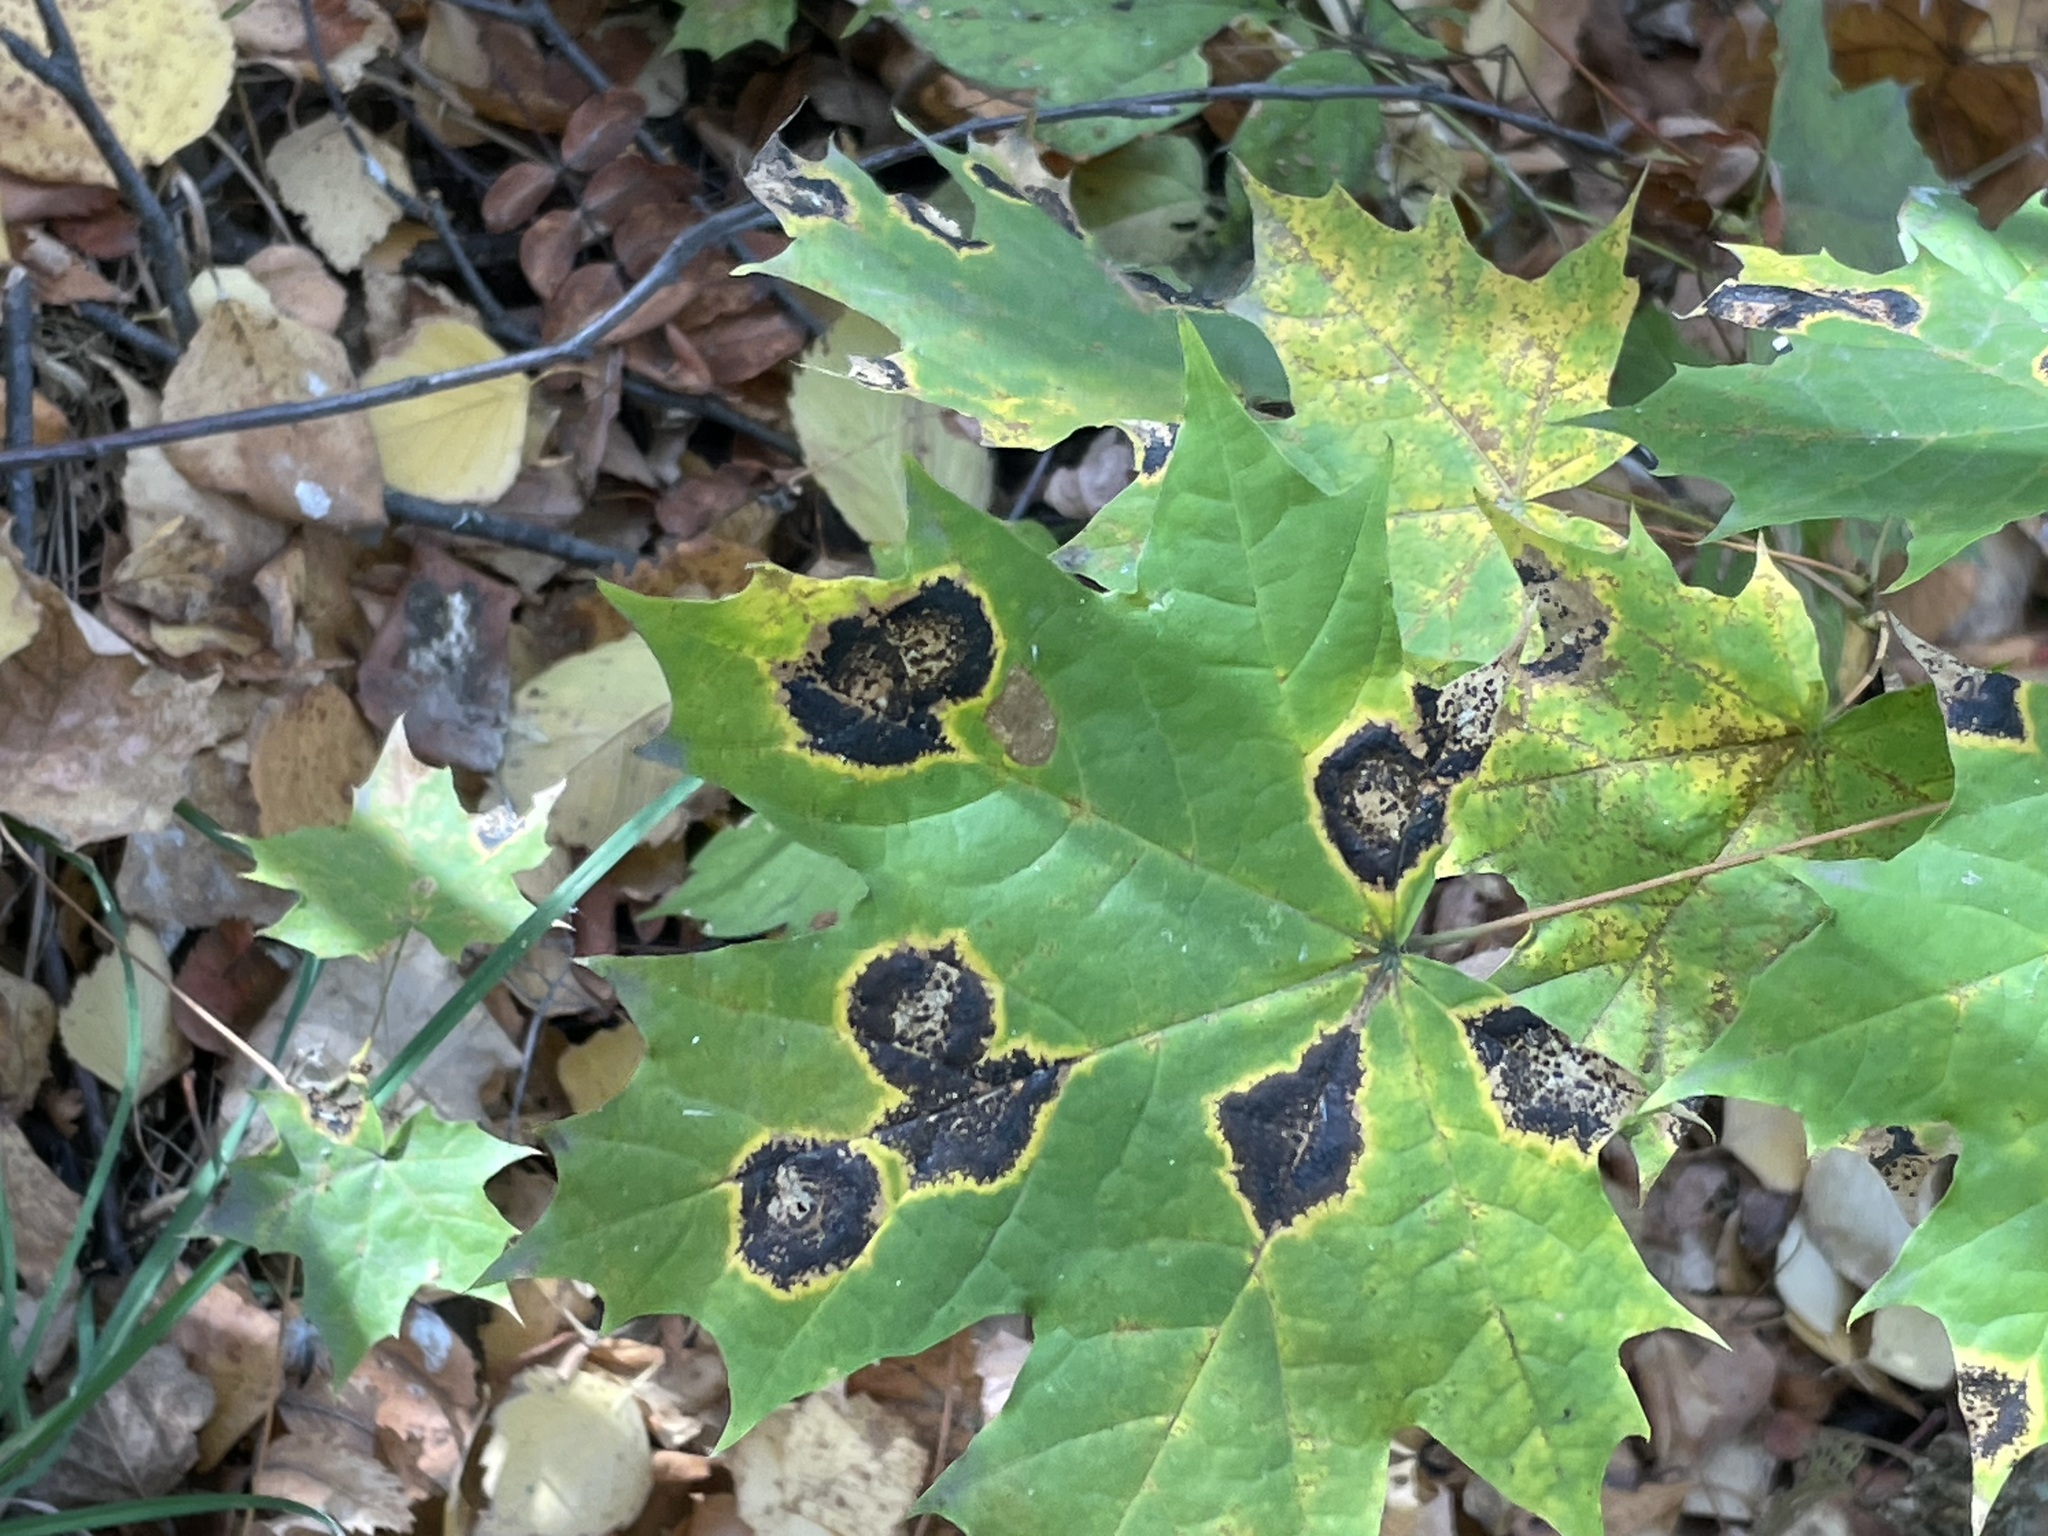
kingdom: Plantae
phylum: Tracheophyta
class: Magnoliopsida
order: Sapindales
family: Sapindaceae
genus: Acer
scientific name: Acer platanoides
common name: Norway maple
